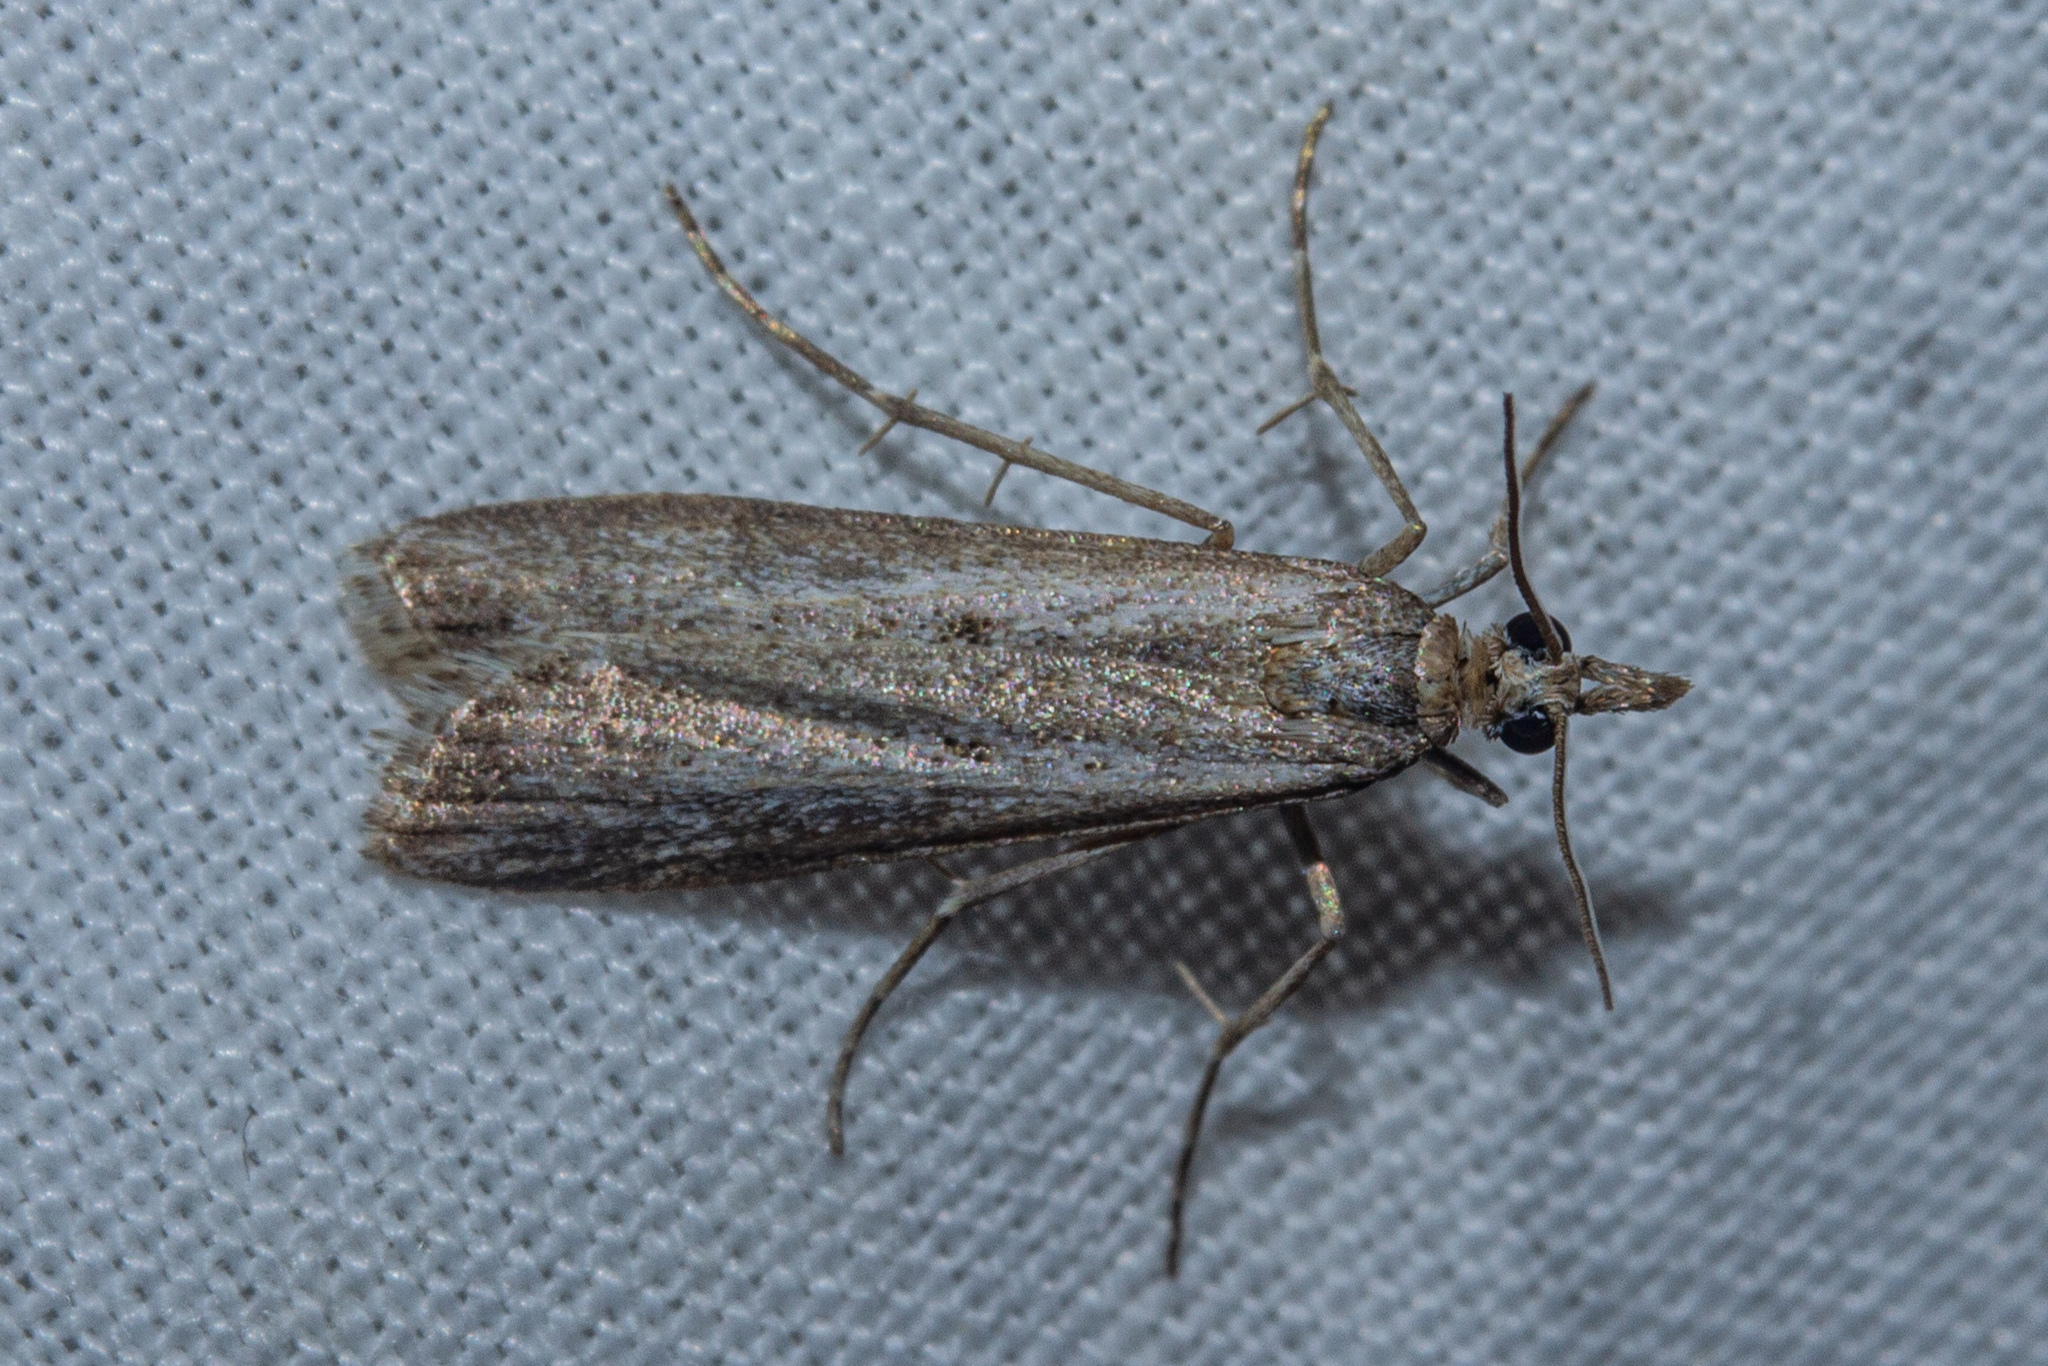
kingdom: Animalia
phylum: Arthropoda
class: Insecta
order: Lepidoptera
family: Crambidae
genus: Eudonia
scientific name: Eudonia leptalea
